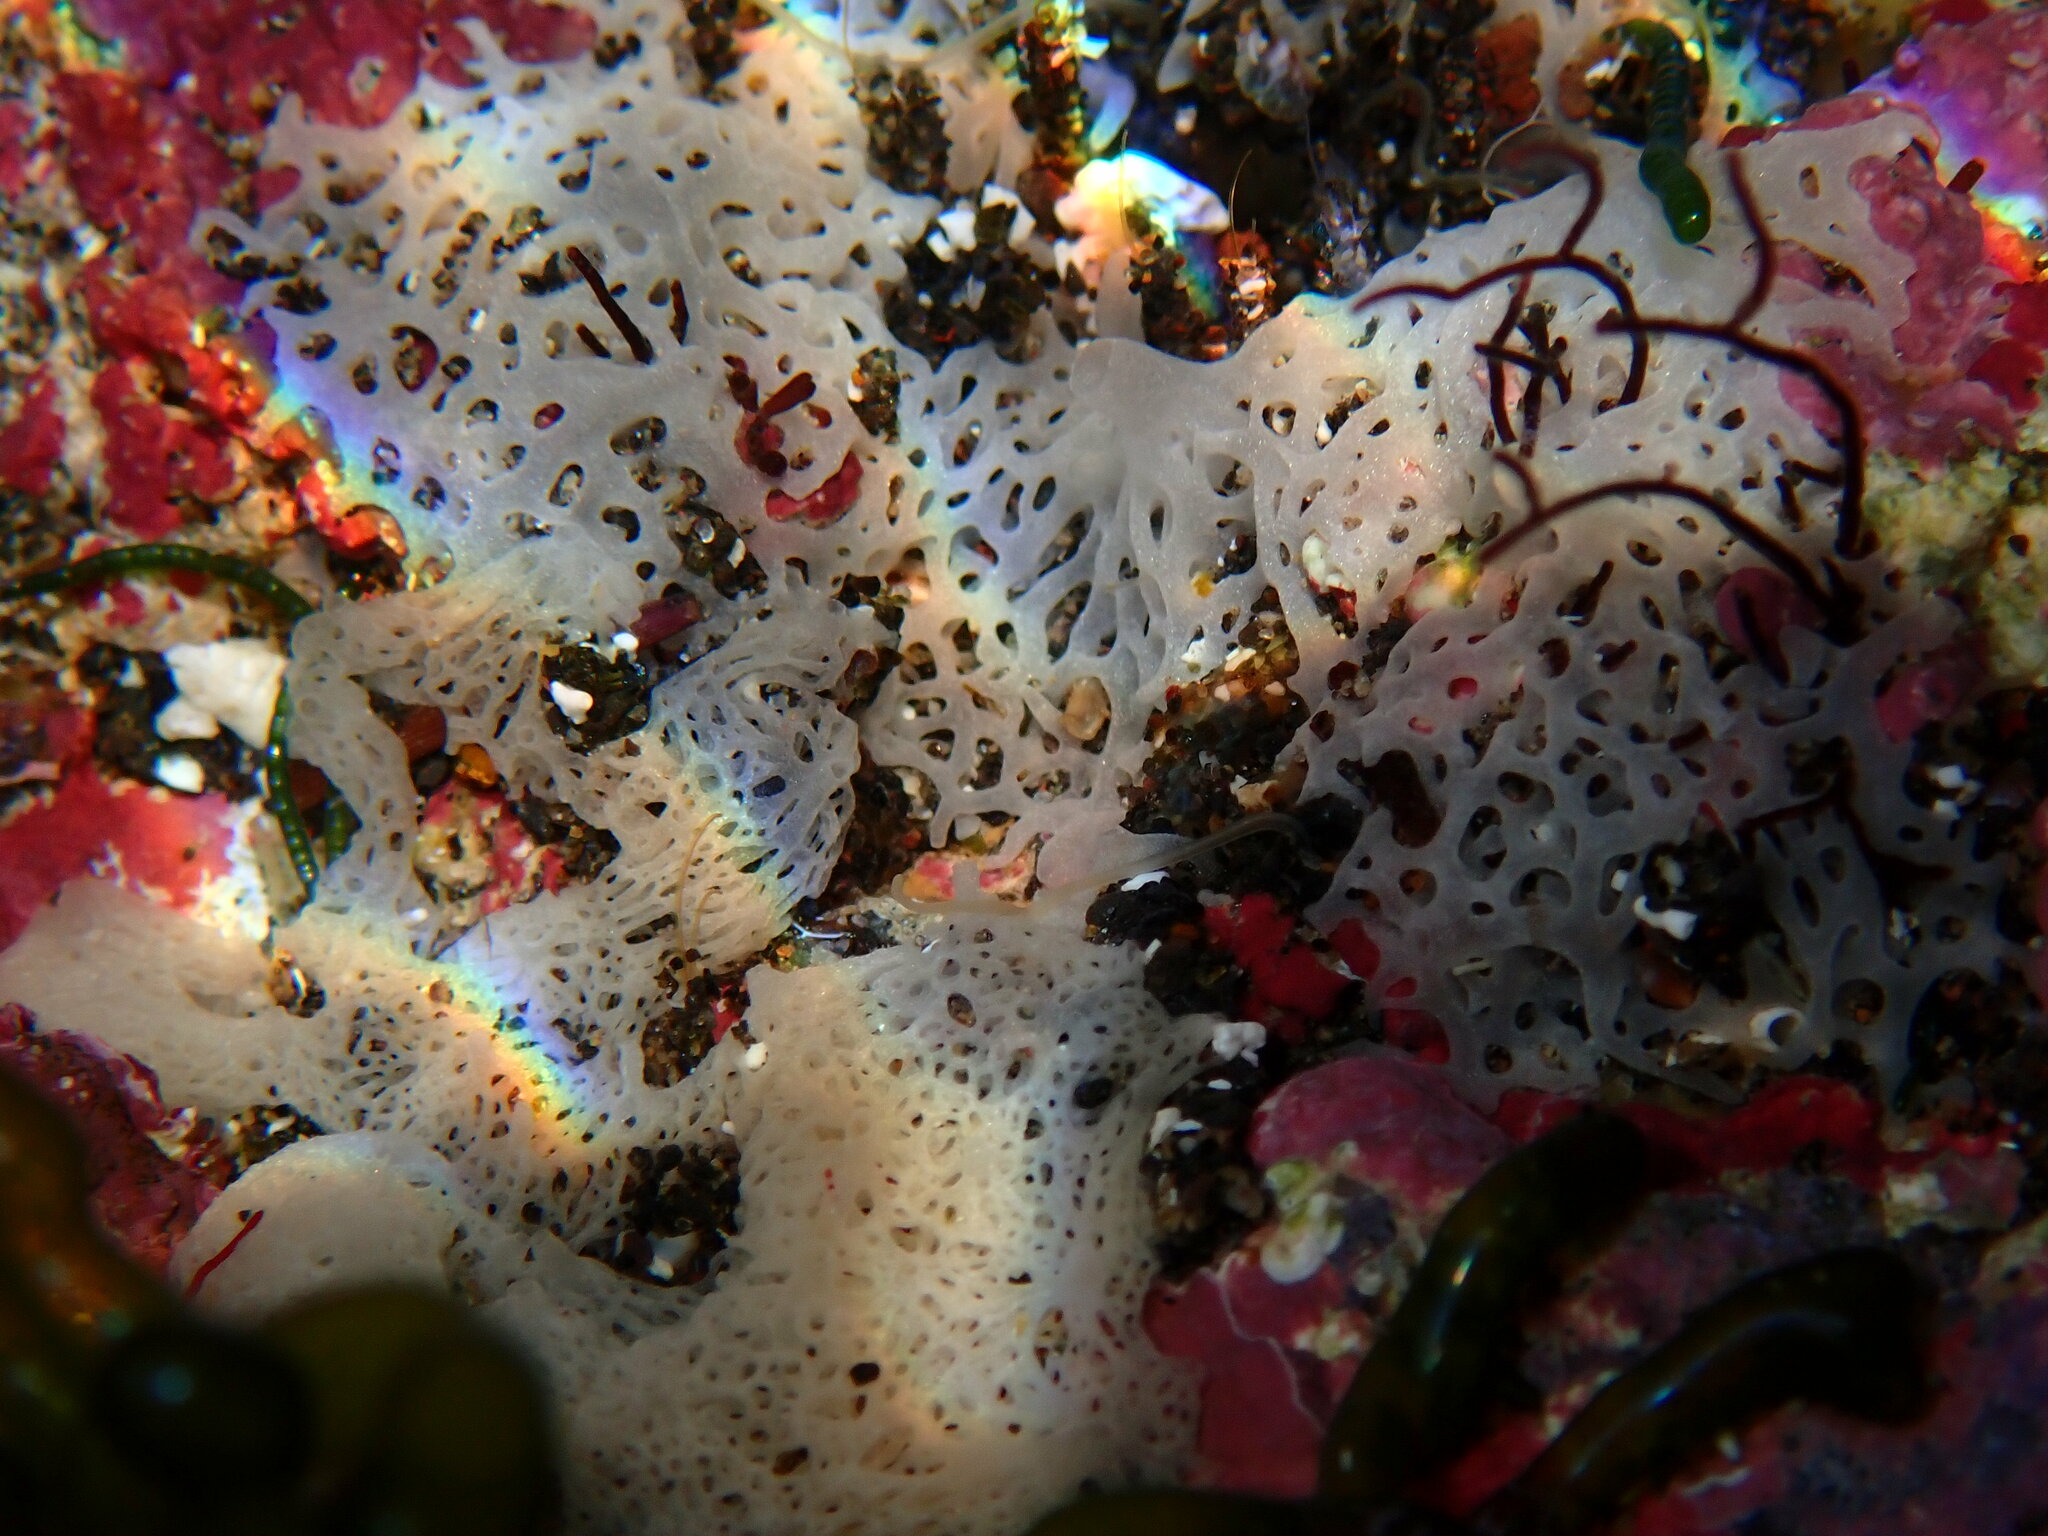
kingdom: Animalia
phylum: Porifera
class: Calcarea
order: Clathrinida
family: Clathrinidae
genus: Clathrina
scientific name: Clathrina coriacea
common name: White clathrina
